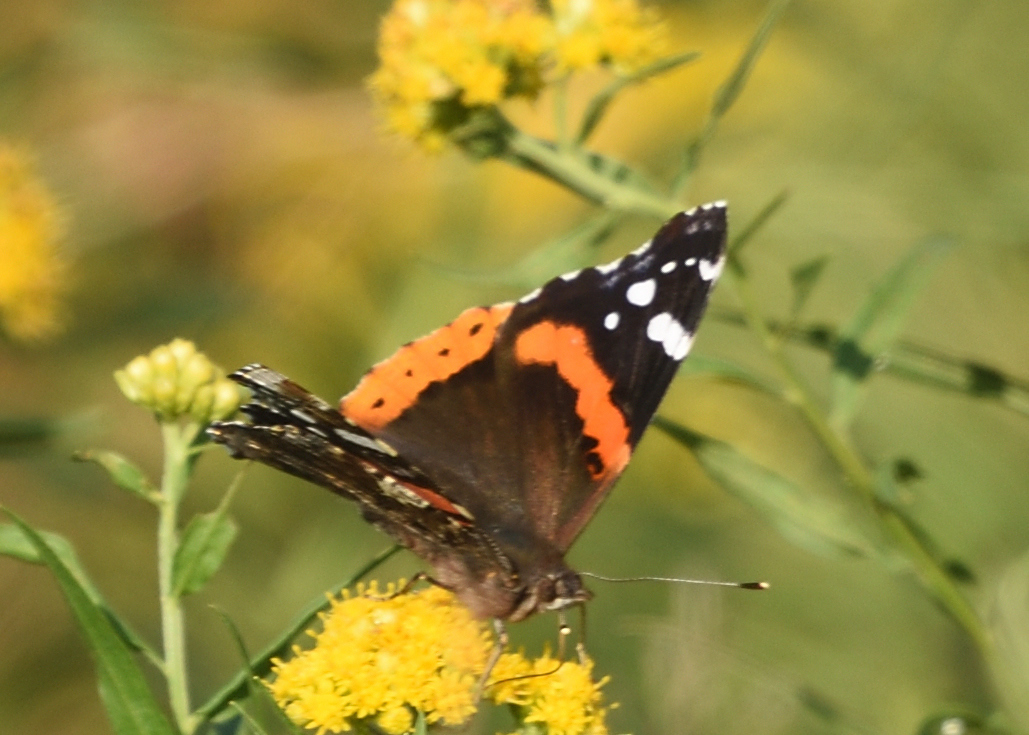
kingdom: Animalia
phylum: Arthropoda
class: Insecta
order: Lepidoptera
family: Nymphalidae
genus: Vanessa
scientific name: Vanessa atalanta
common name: Red admiral
